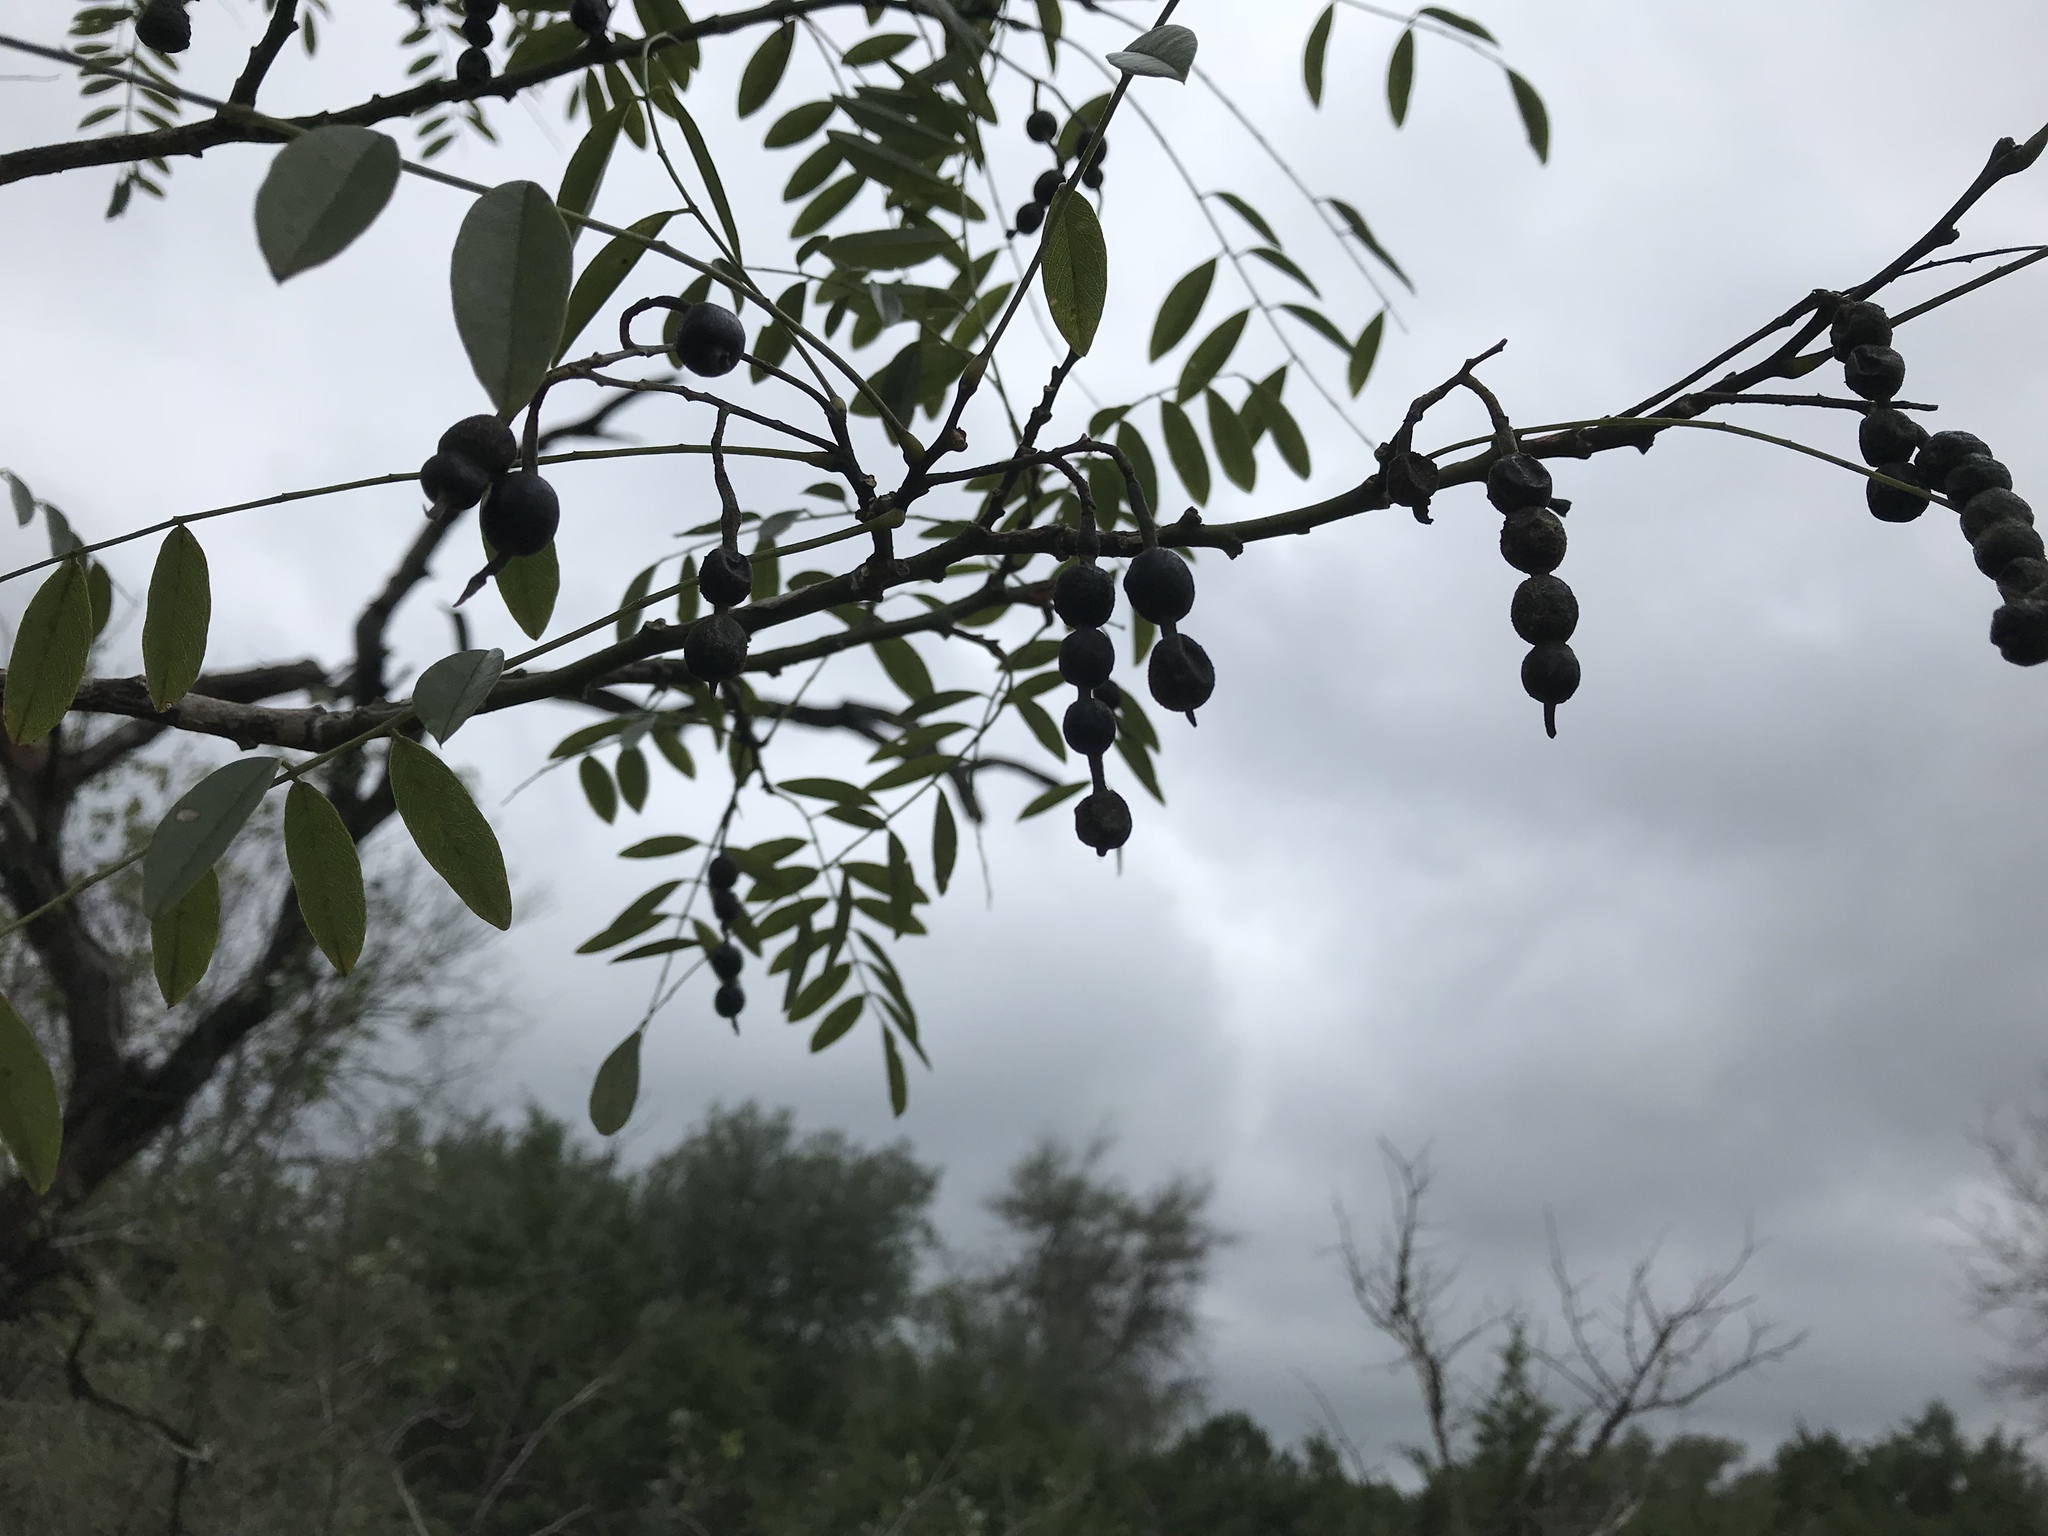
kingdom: Plantae
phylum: Tracheophyta
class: Magnoliopsida
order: Fabales
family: Fabaceae
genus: Styphnolobium
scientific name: Styphnolobium affine
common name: Texas sophora
